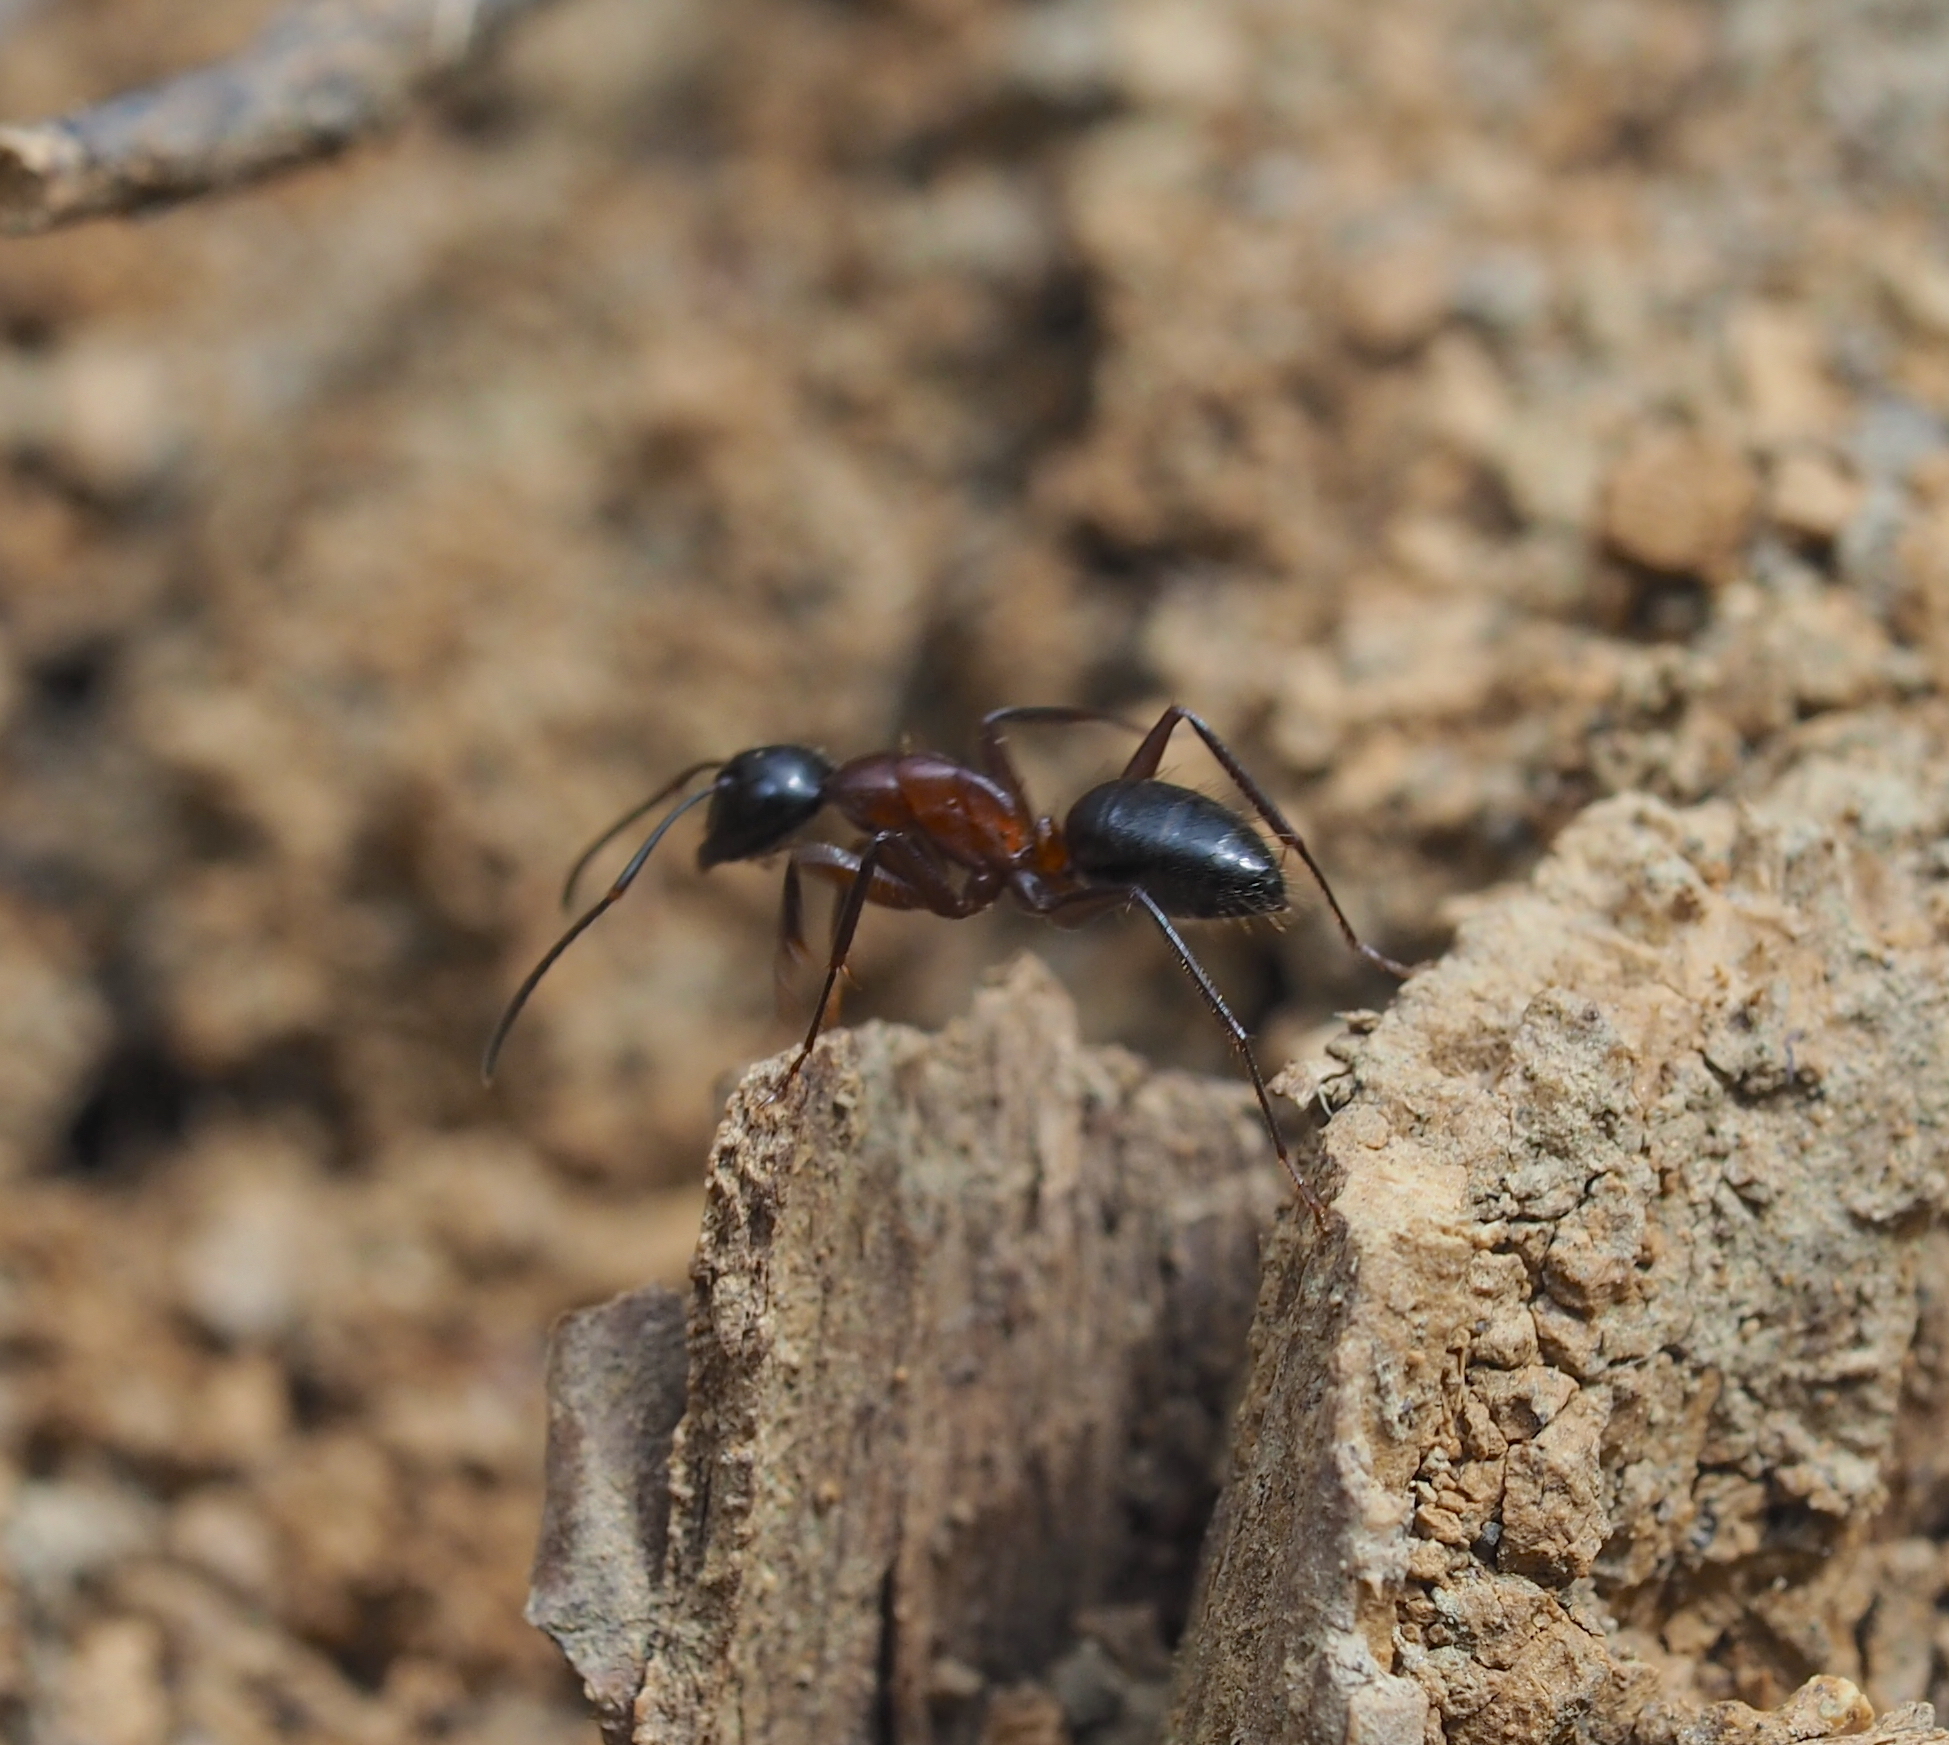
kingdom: Animalia
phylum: Arthropoda
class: Insecta
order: Hymenoptera
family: Formicidae
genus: Camponotus
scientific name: Camponotus ligniperdus
